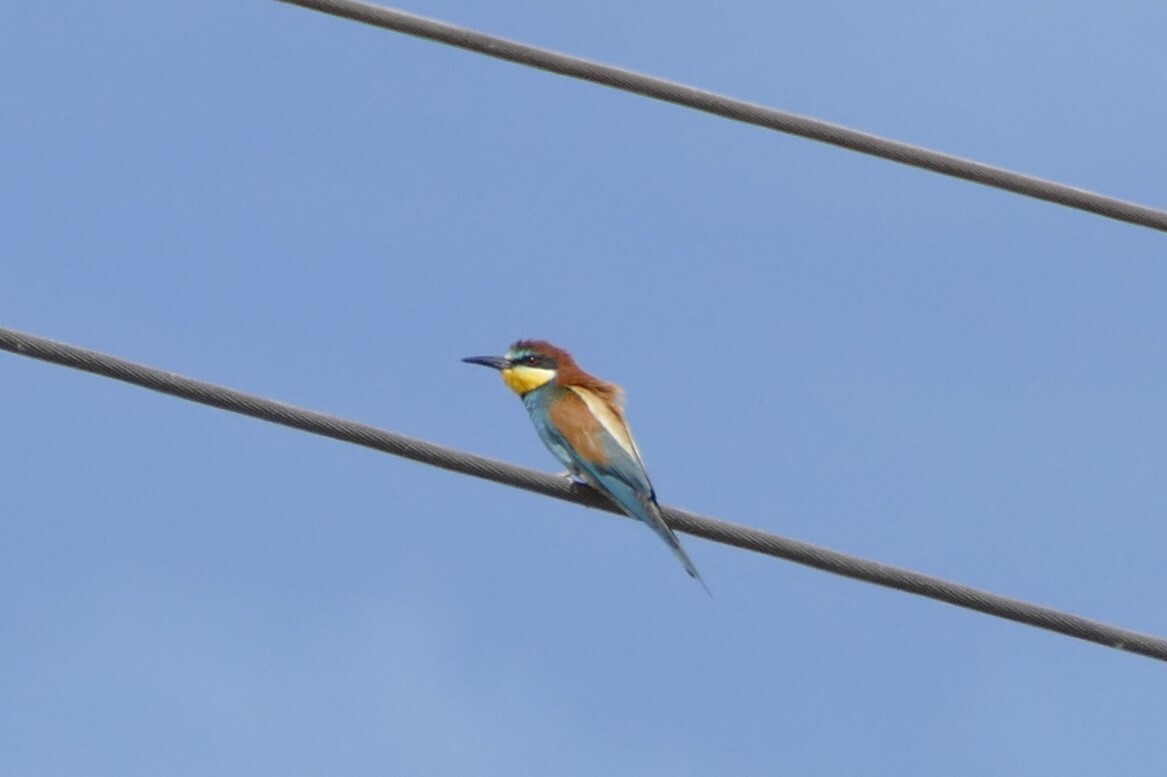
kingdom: Animalia
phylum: Chordata
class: Aves
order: Coraciiformes
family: Meropidae
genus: Merops
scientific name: Merops apiaster
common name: European bee-eater
